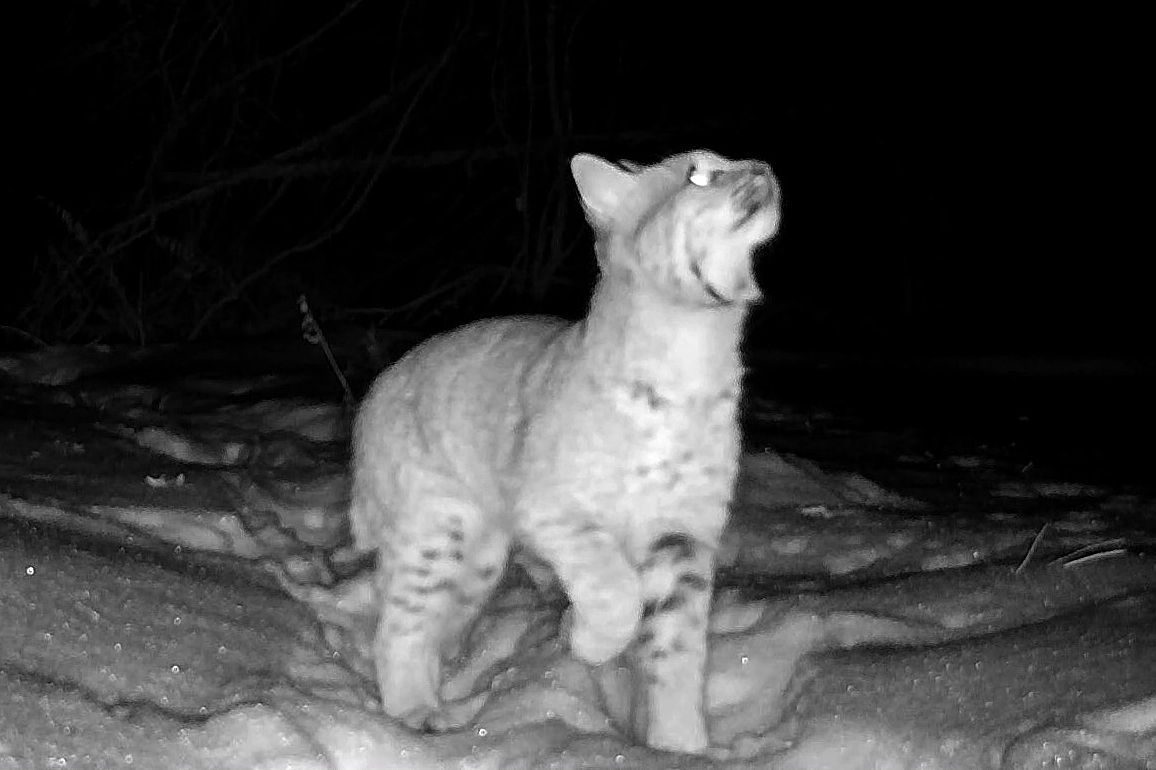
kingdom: Animalia
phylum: Chordata
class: Mammalia
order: Carnivora
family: Felidae
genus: Lynx
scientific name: Lynx rufus
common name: Bobcat
